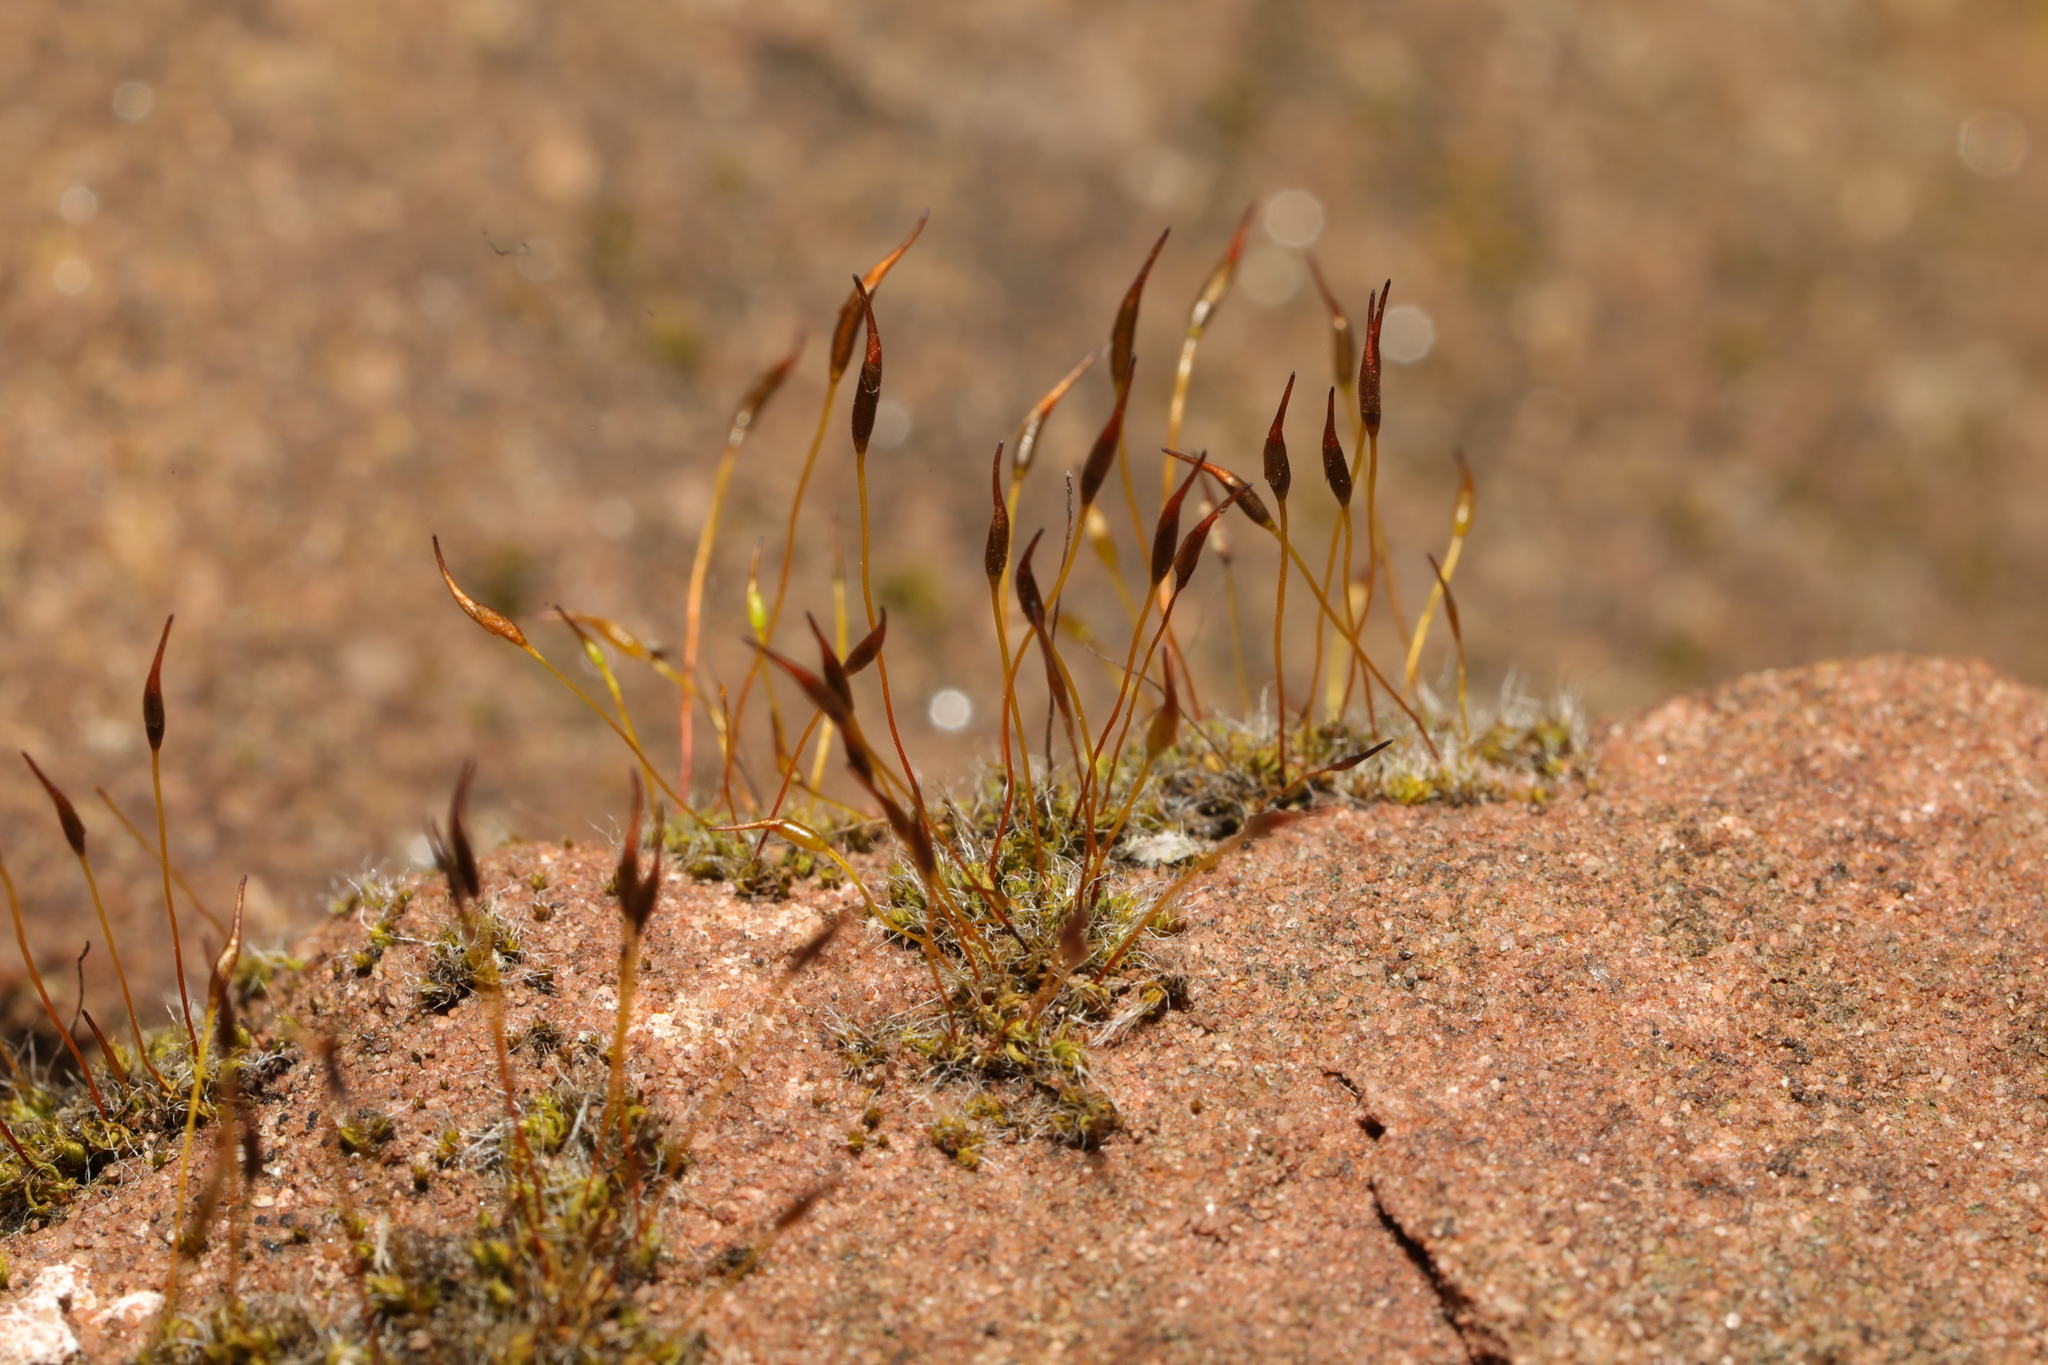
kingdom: Plantae
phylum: Bryophyta
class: Bryopsida
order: Pottiales
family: Pottiaceae
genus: Tortula
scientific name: Tortula muralis
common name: Wall screw-moss
